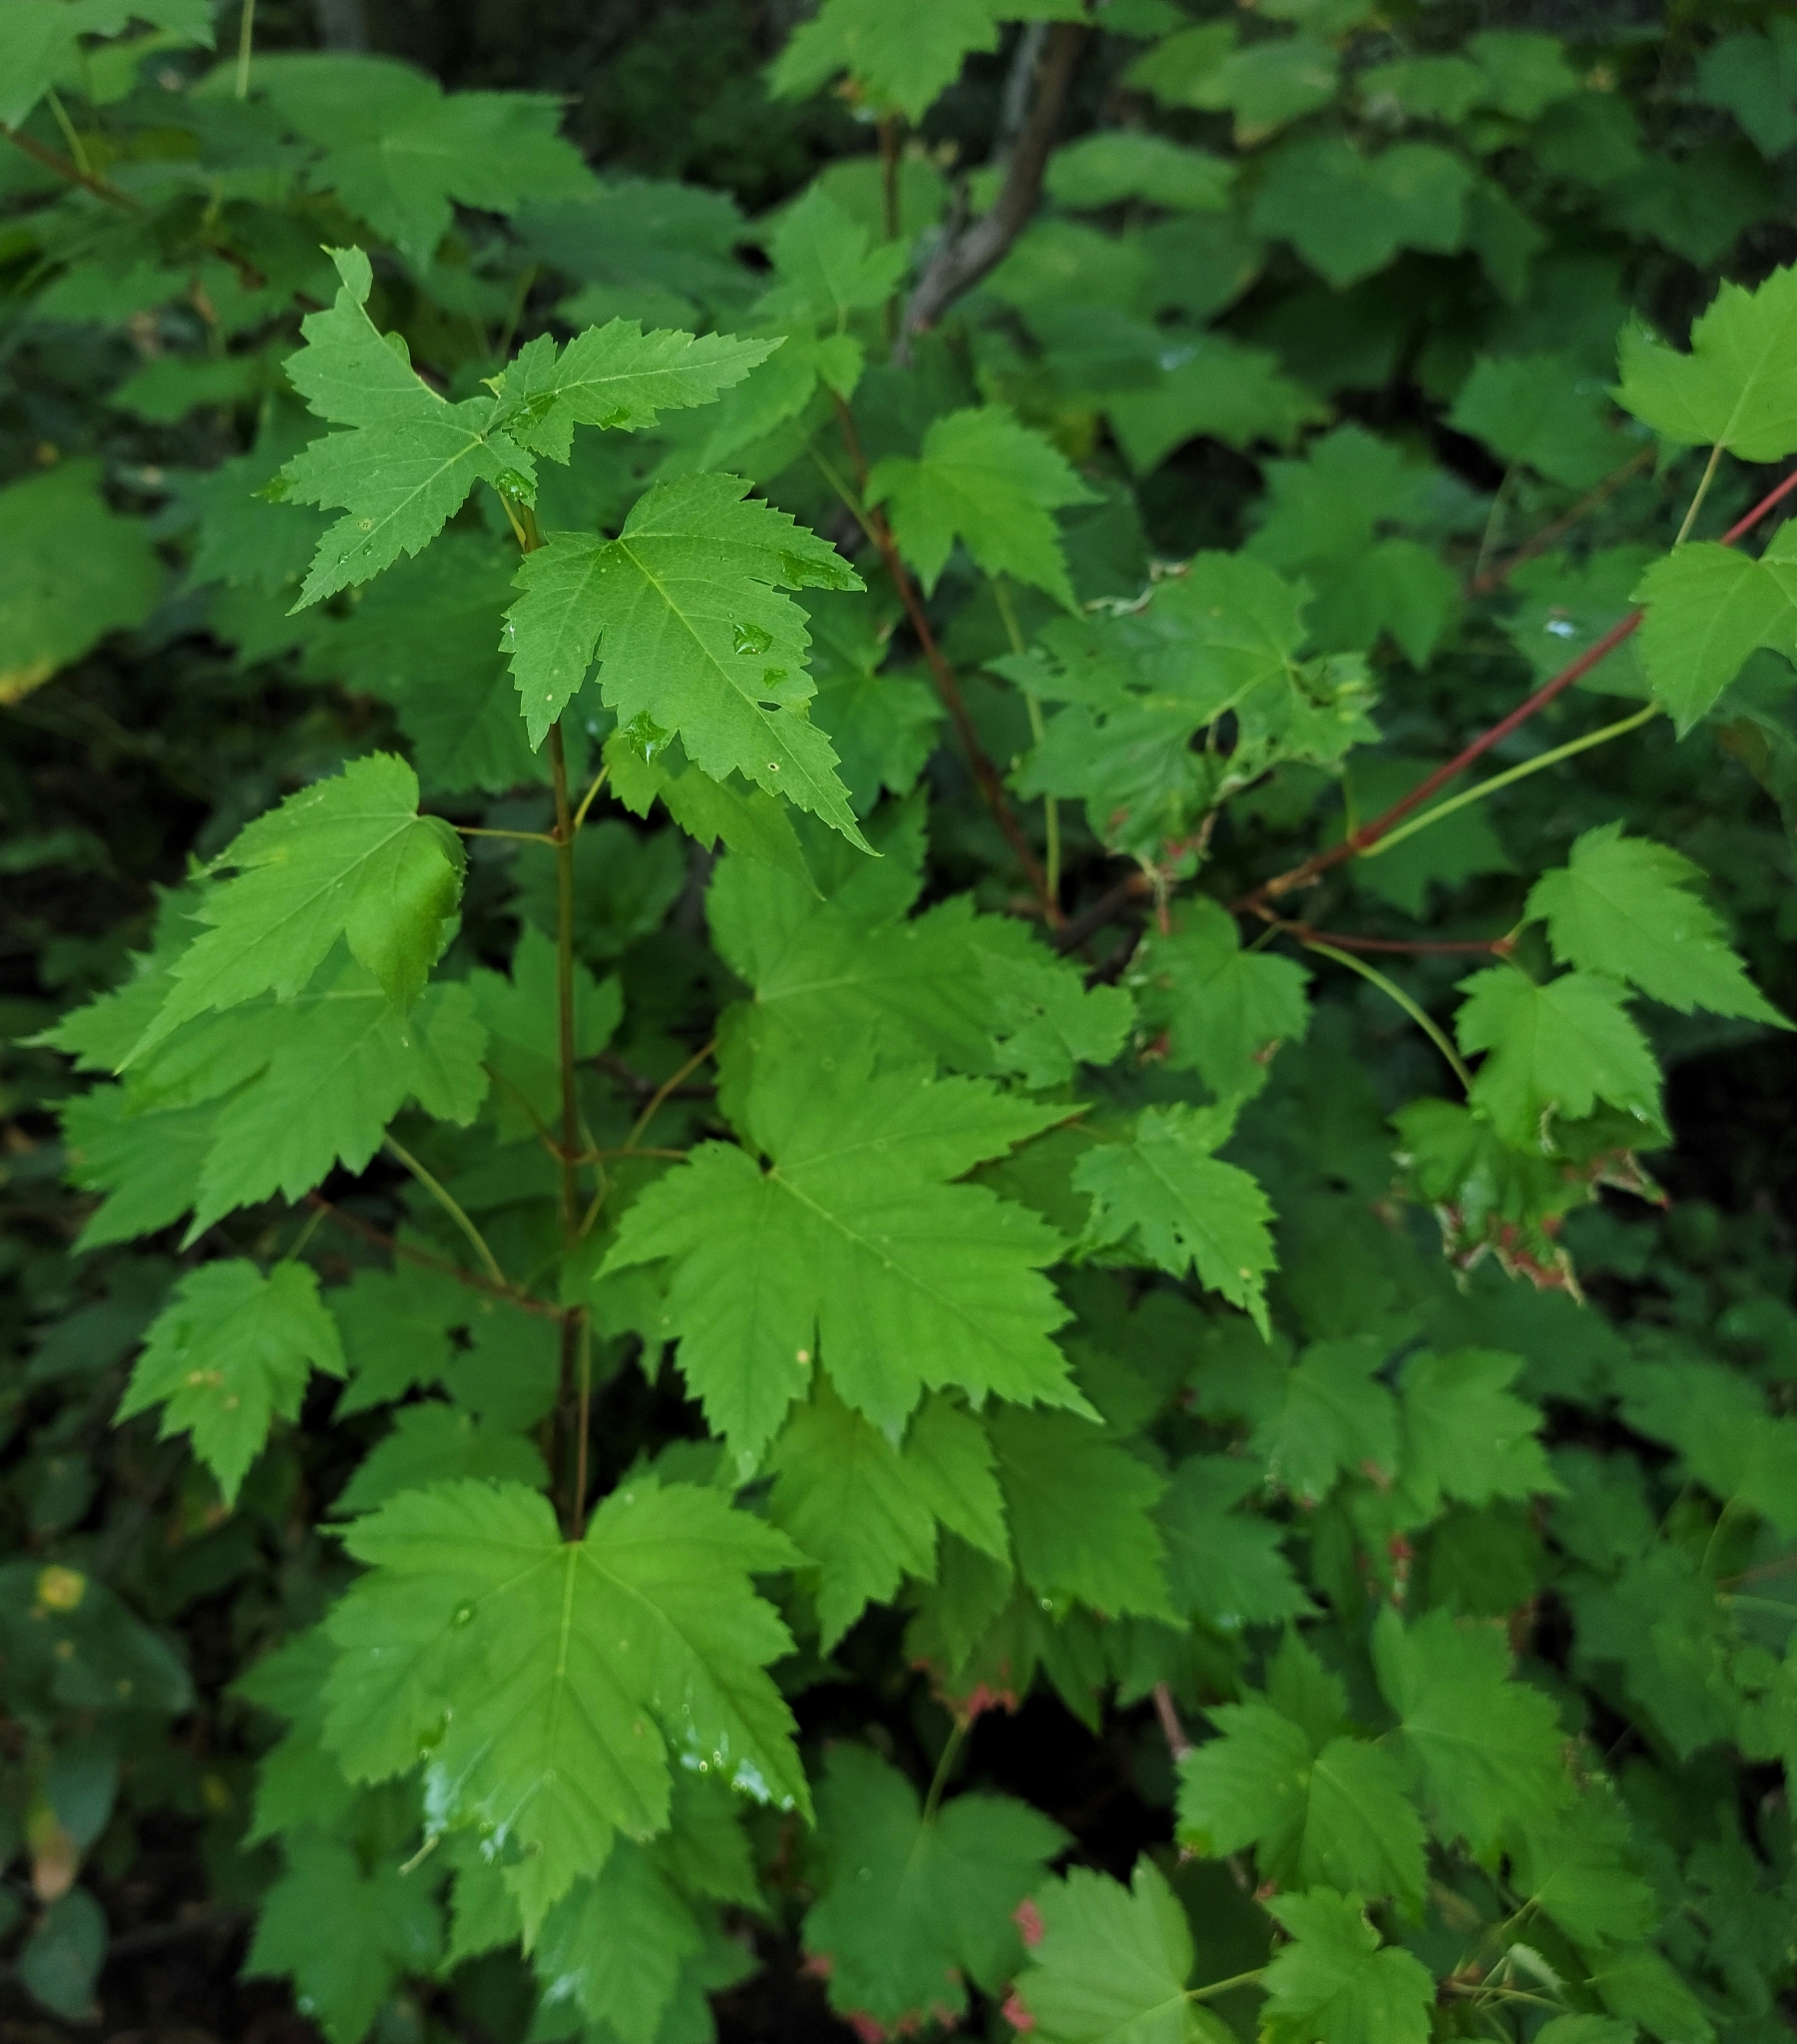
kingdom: Plantae
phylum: Tracheophyta
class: Magnoliopsida
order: Sapindales
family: Sapindaceae
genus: Acer
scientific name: Acer glabrum
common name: Rocky mountain maple
